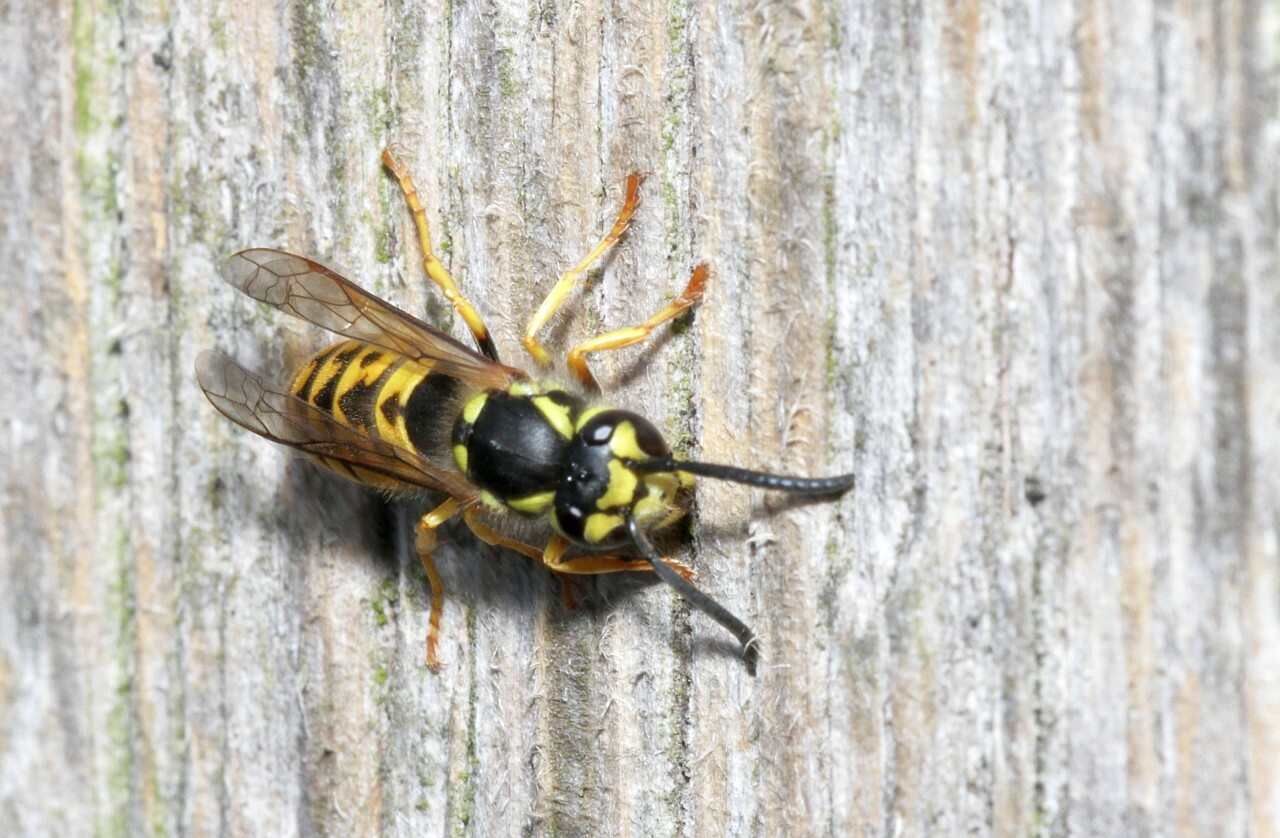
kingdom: Animalia
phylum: Arthropoda
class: Insecta
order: Hymenoptera
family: Vespidae
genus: Vespula
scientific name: Vespula germanica
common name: German wasp
